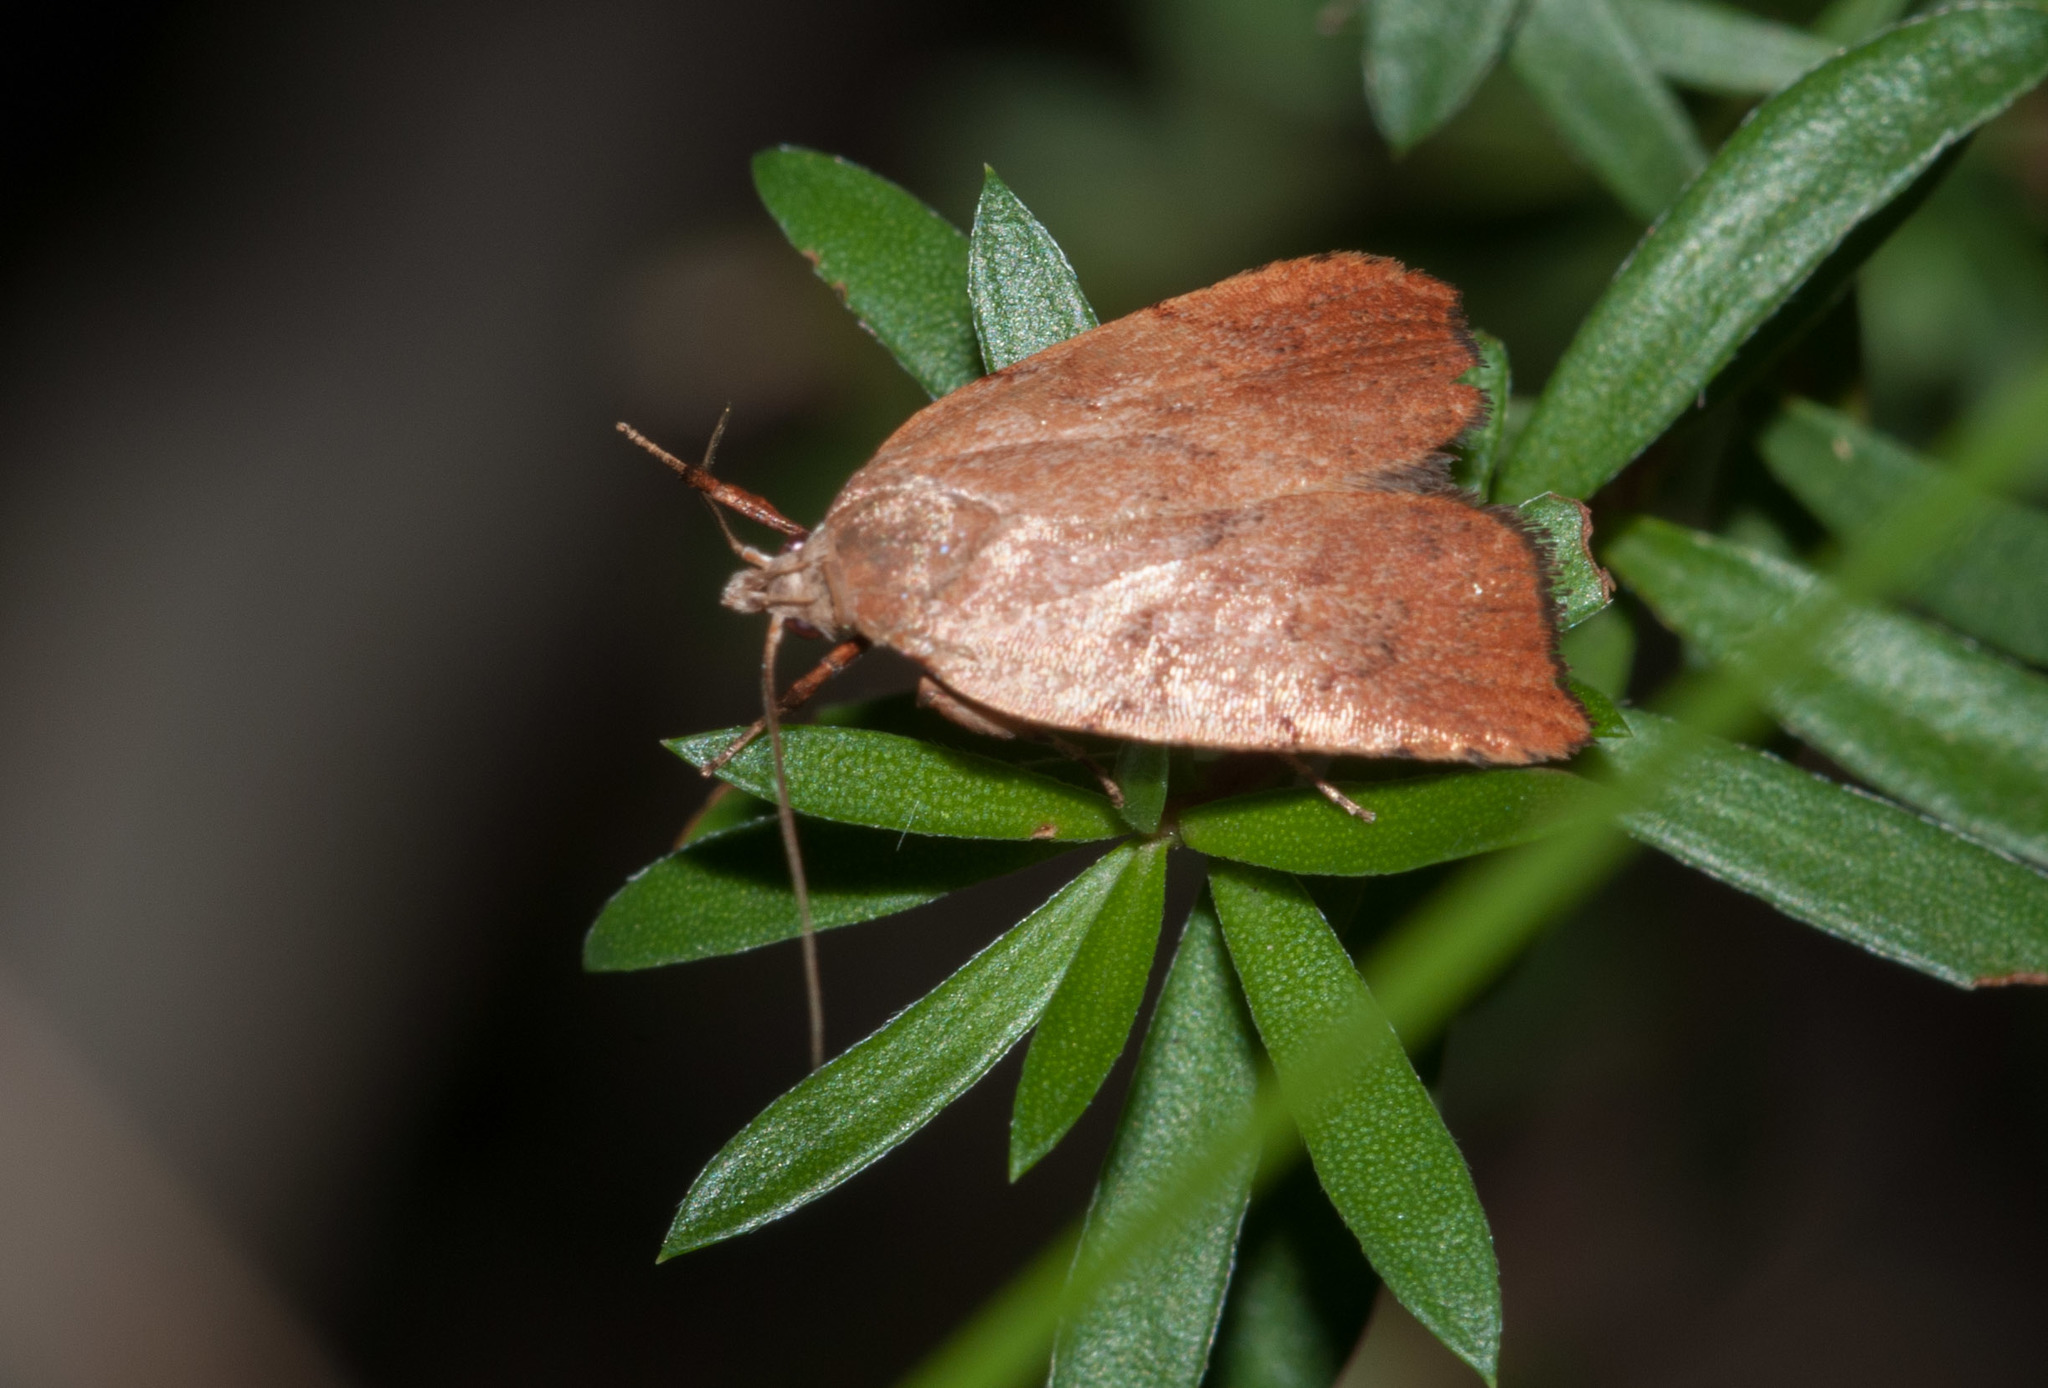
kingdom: Animalia
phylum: Arthropoda
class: Insecta
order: Lepidoptera
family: Oecophoridae
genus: Tortricopsis
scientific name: Tortricopsis uncinella
